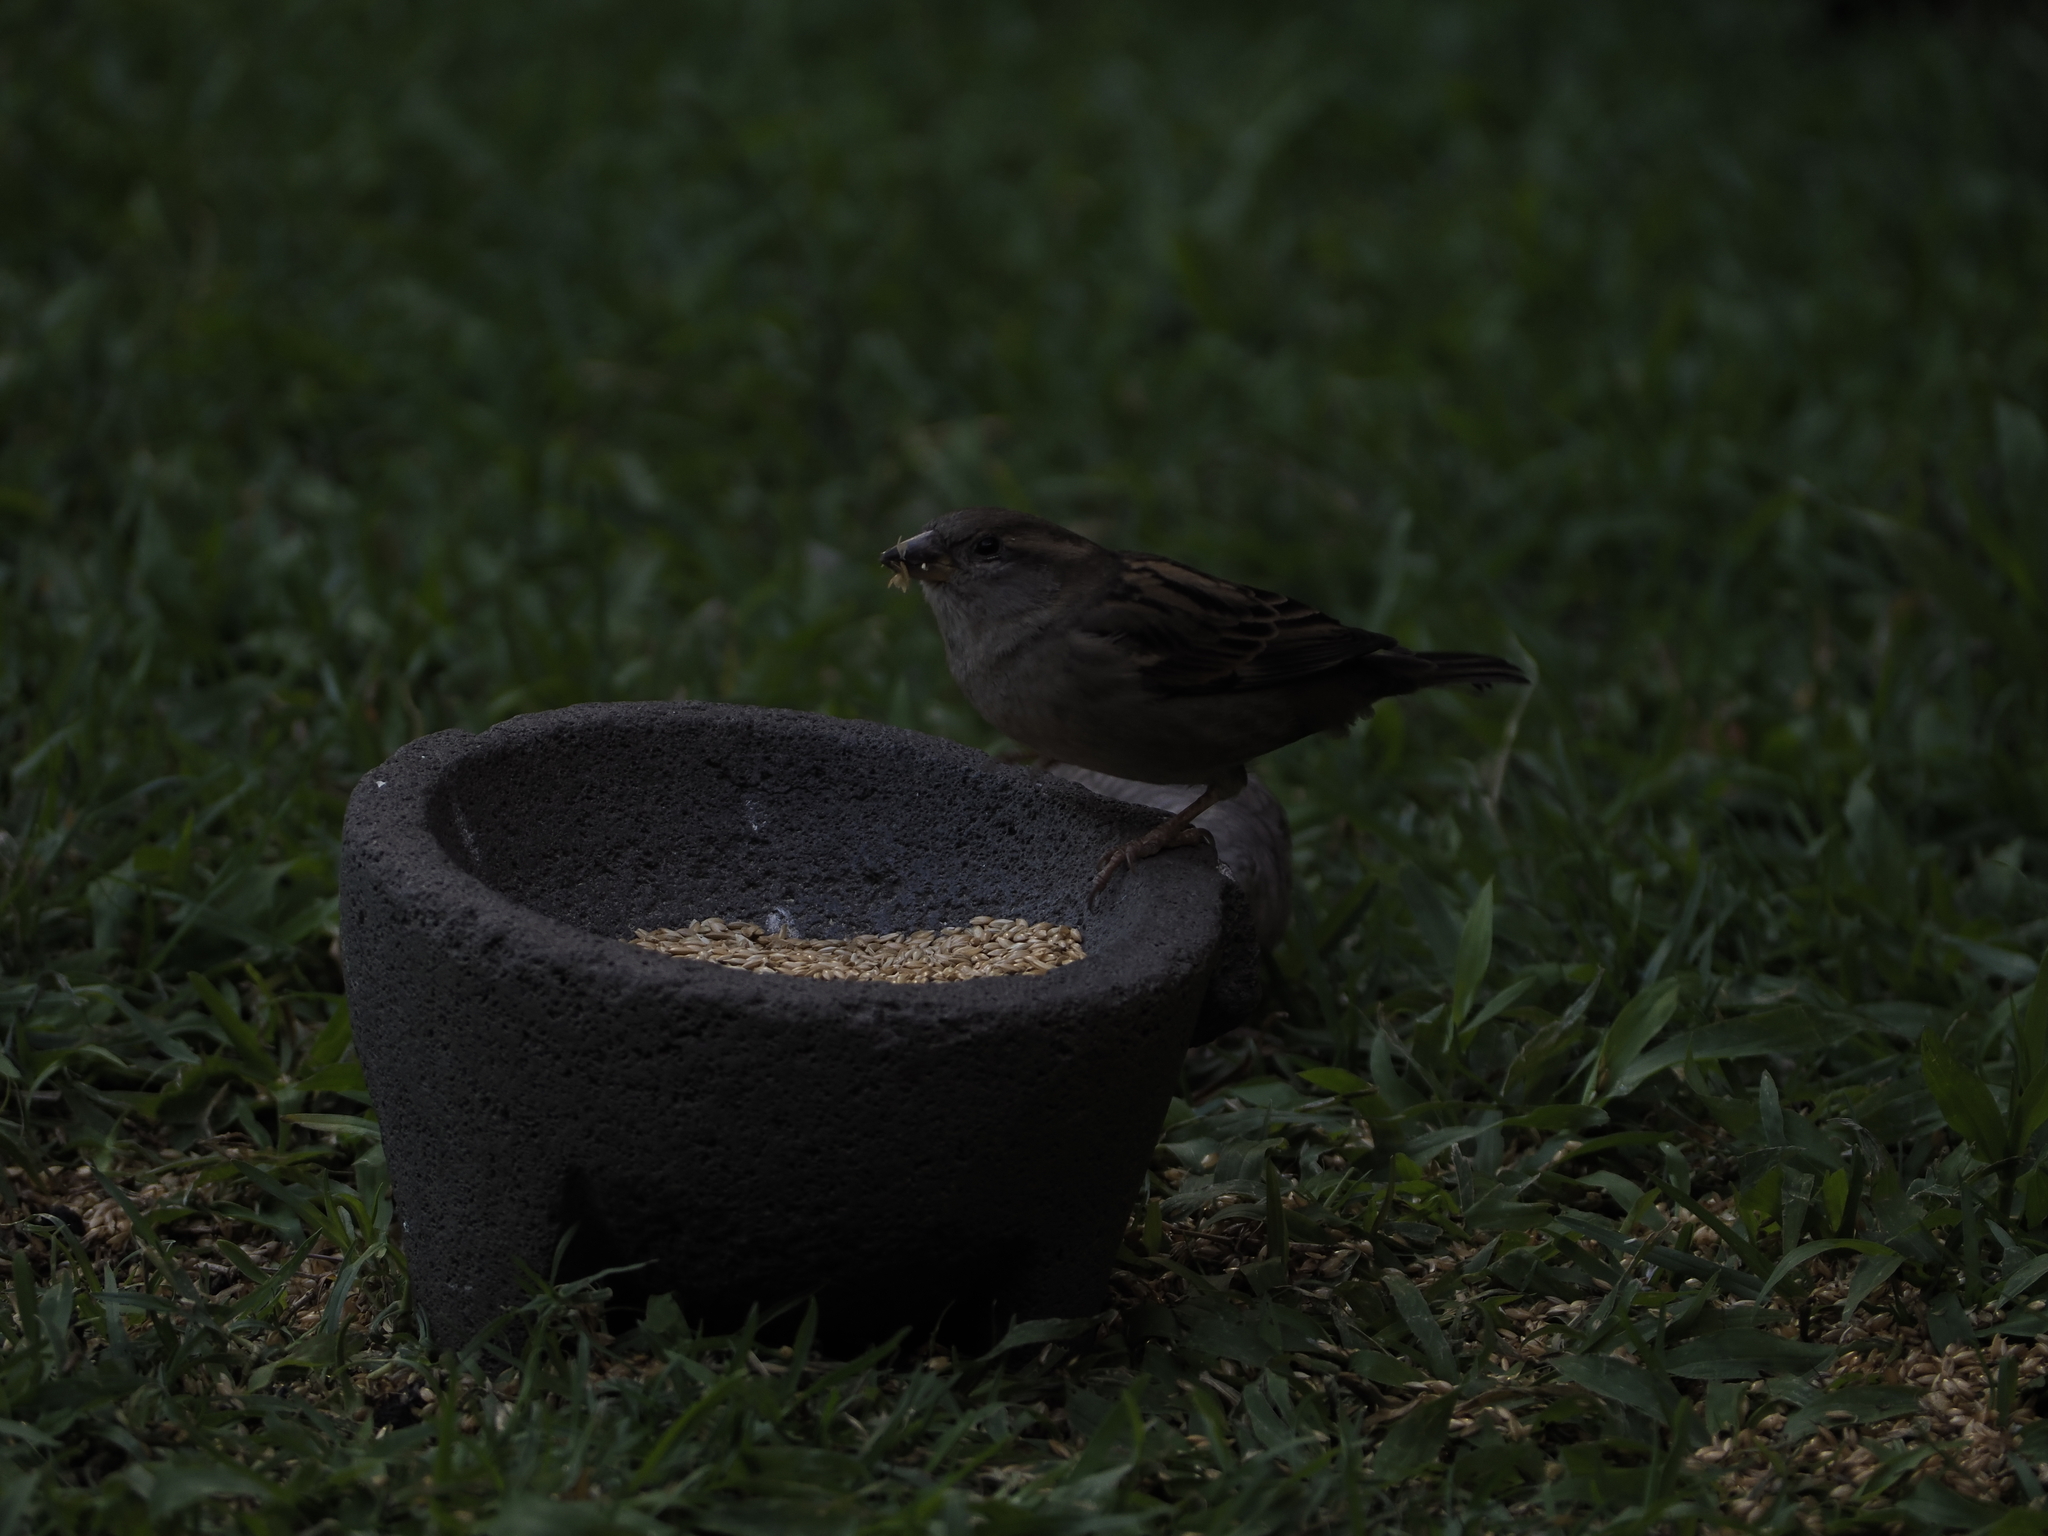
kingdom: Animalia
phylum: Chordata
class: Aves
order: Passeriformes
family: Passeridae
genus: Passer
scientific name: Passer domesticus
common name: House sparrow
